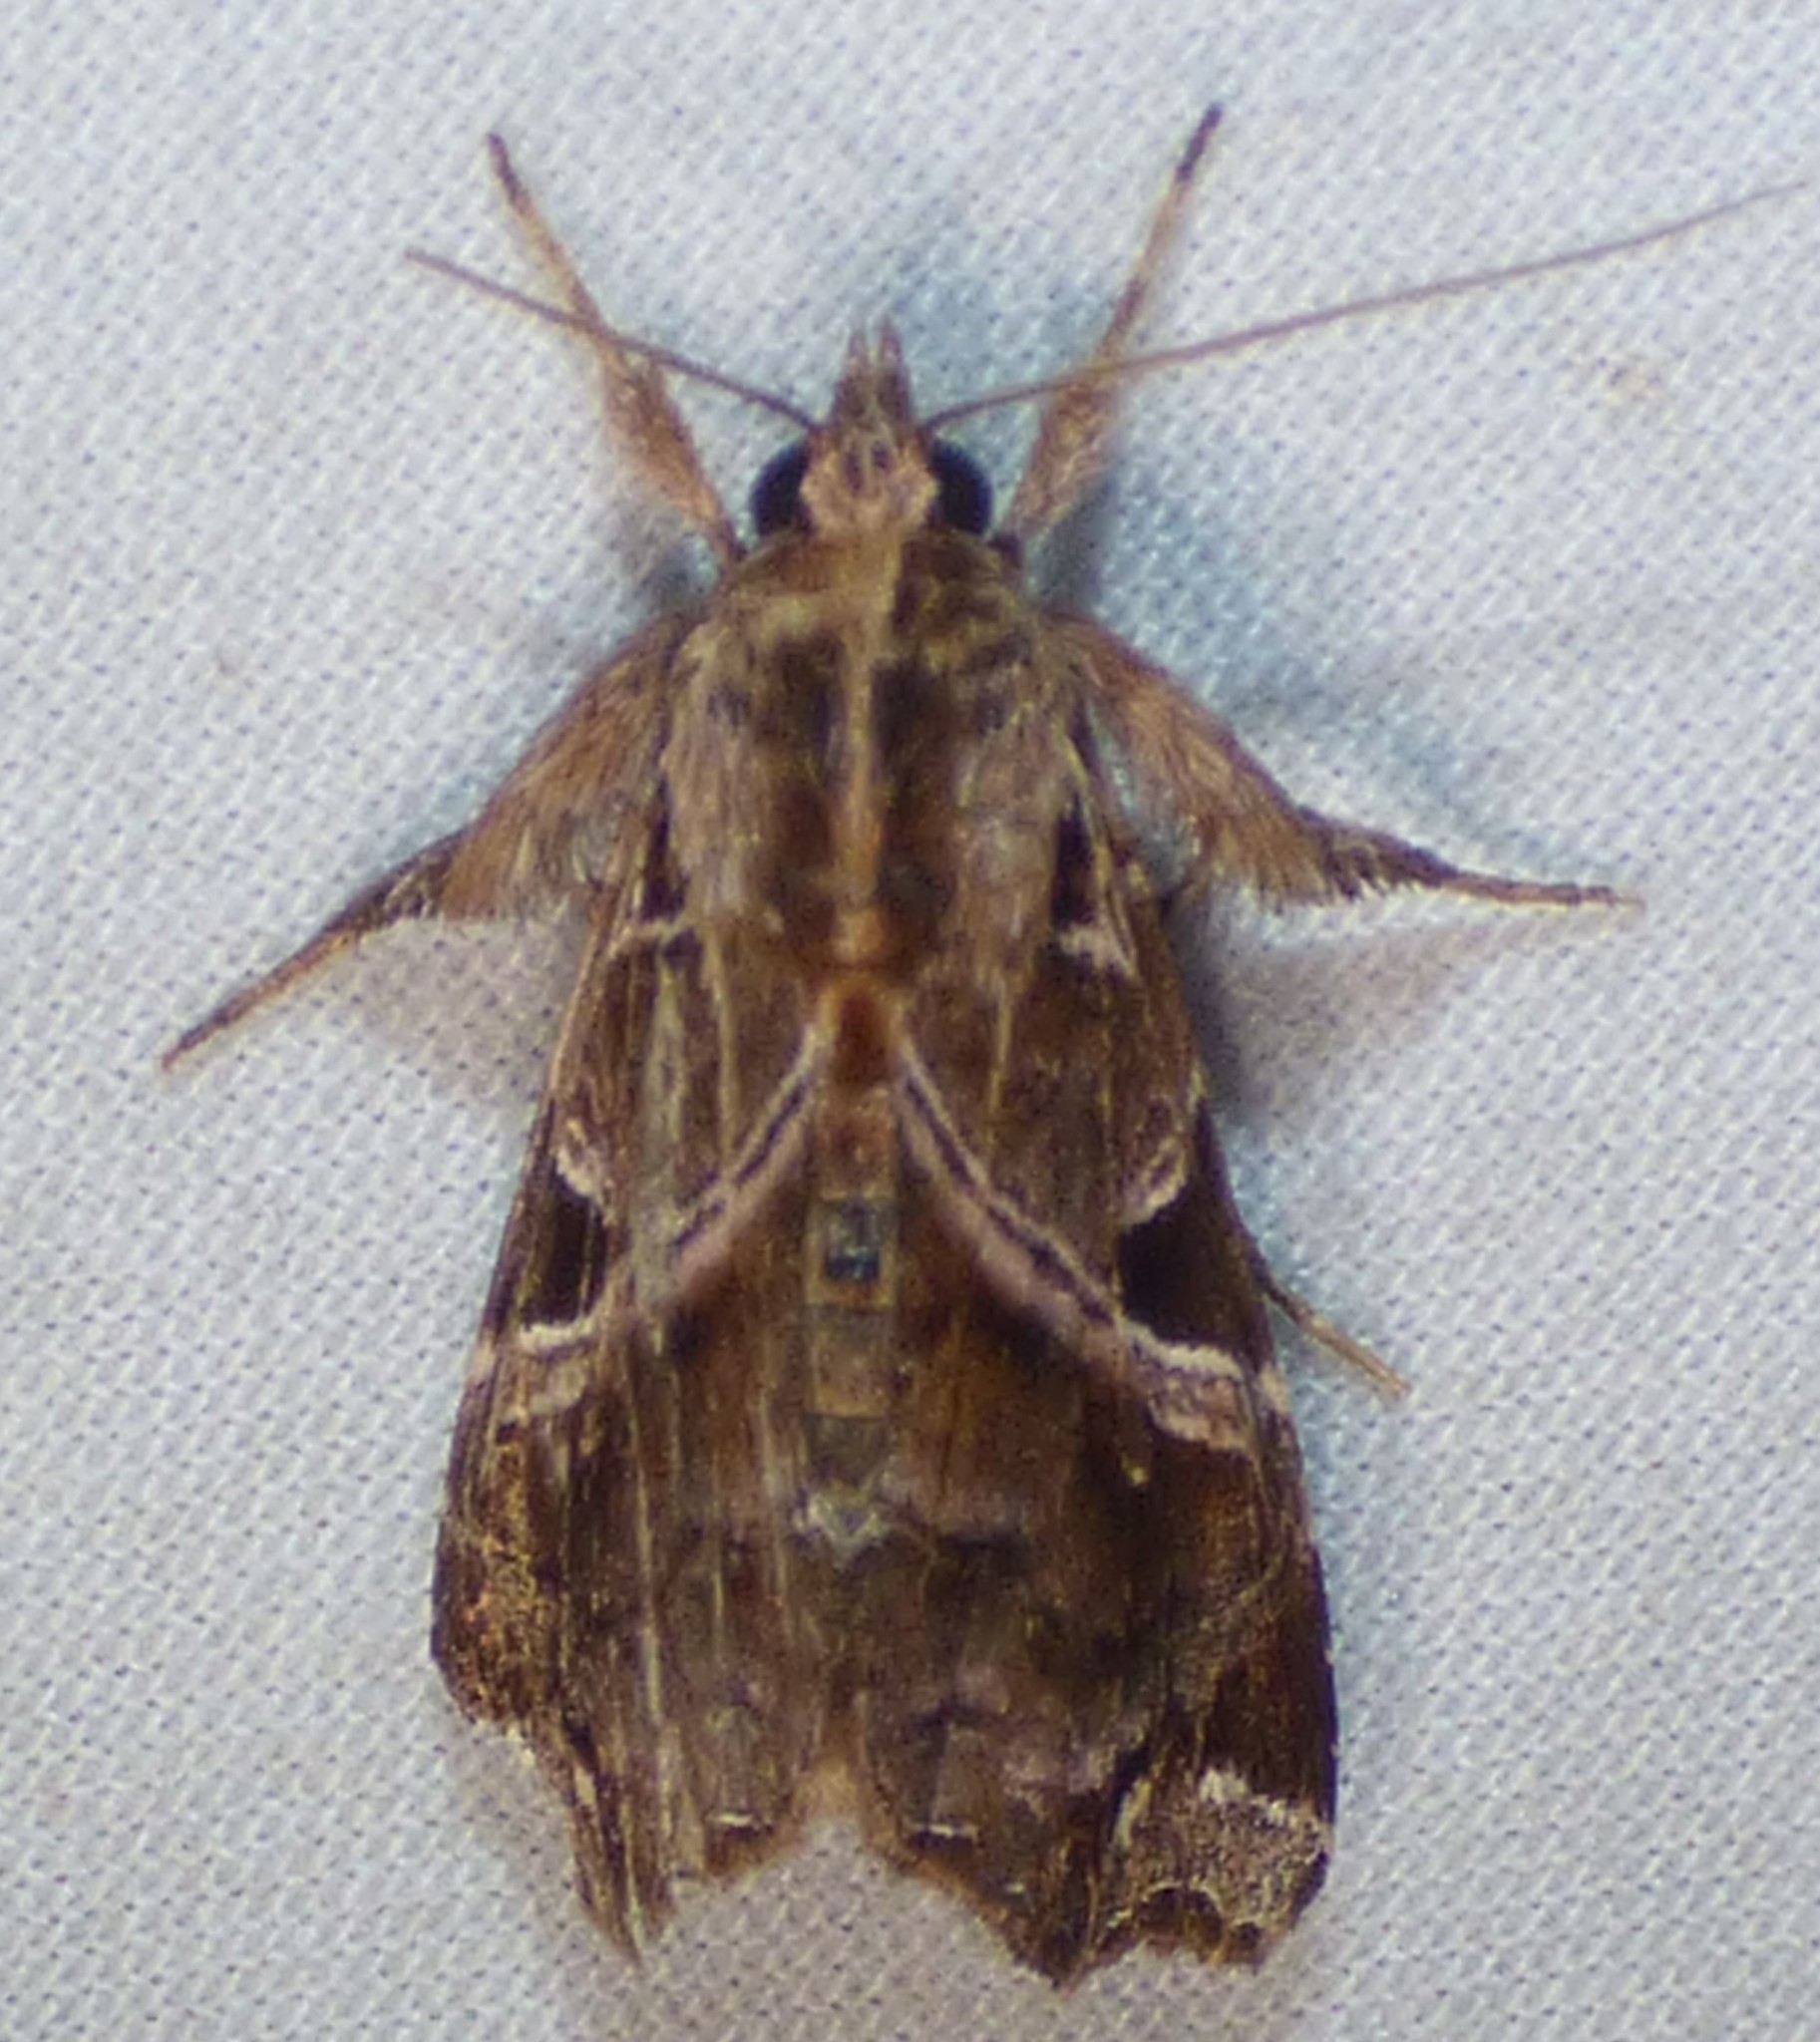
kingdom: Animalia
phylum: Arthropoda
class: Insecta
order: Lepidoptera
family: Noctuidae
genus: Callopistria
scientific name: Callopistria floridensis
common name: Florida fern moth
